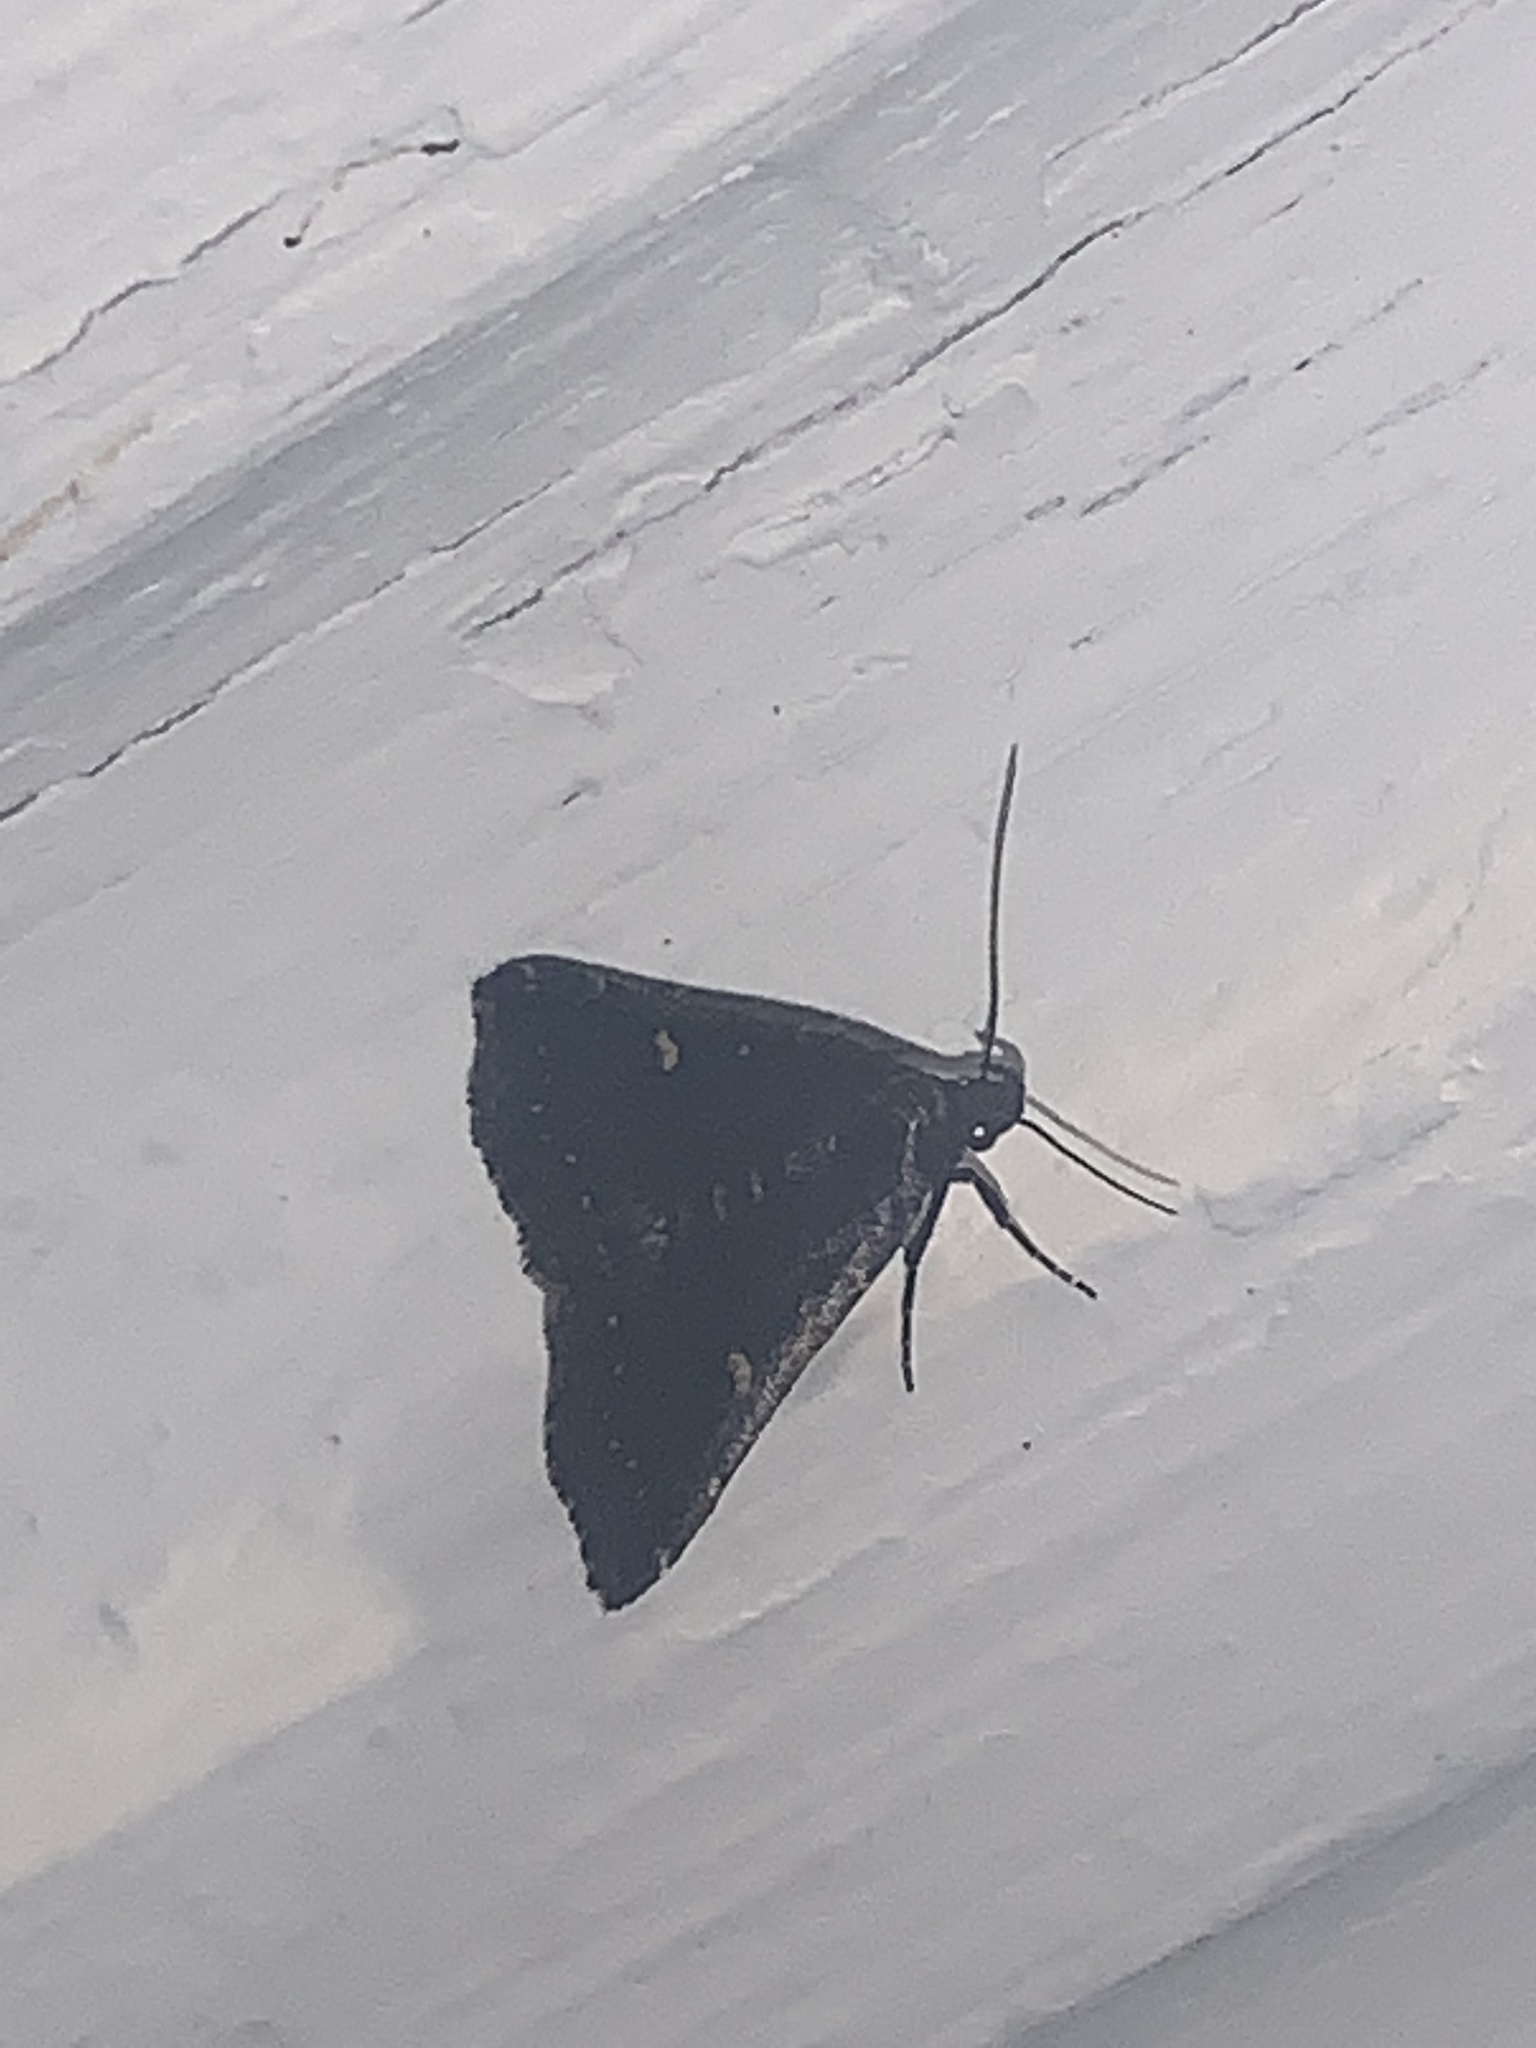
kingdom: Animalia
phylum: Arthropoda
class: Insecta
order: Lepidoptera
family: Erebidae
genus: Tetanolita
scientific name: Tetanolita mynesalis
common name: Smoky tetanolita moth
